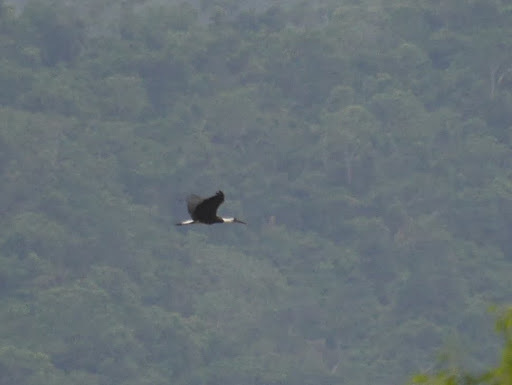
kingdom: Animalia
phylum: Chordata
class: Aves
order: Ciconiiformes
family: Ciconiidae
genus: Ciconia
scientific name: Ciconia microscelis
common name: African woollyneck
